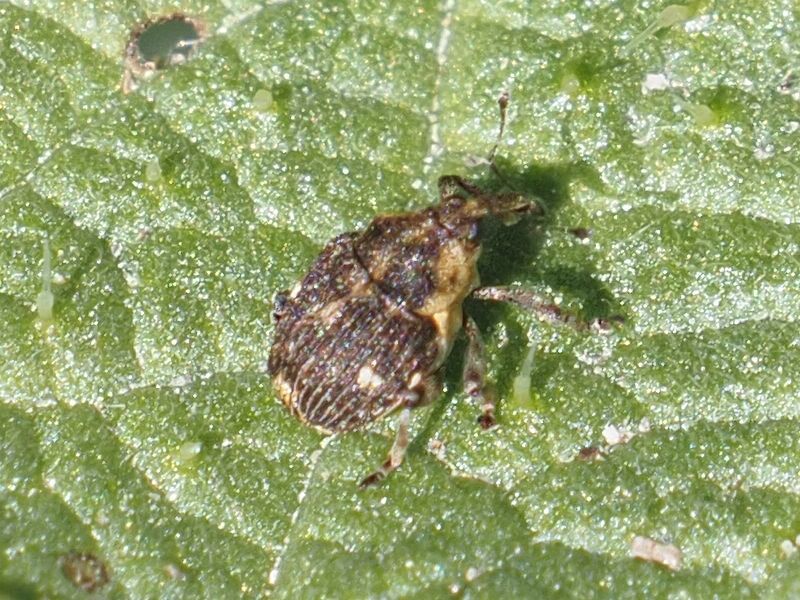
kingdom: Animalia
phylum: Arthropoda
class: Insecta
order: Coleoptera
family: Curculionidae
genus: Nedyus
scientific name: Nedyus quadrimaculatus
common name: Small nettle weevil
